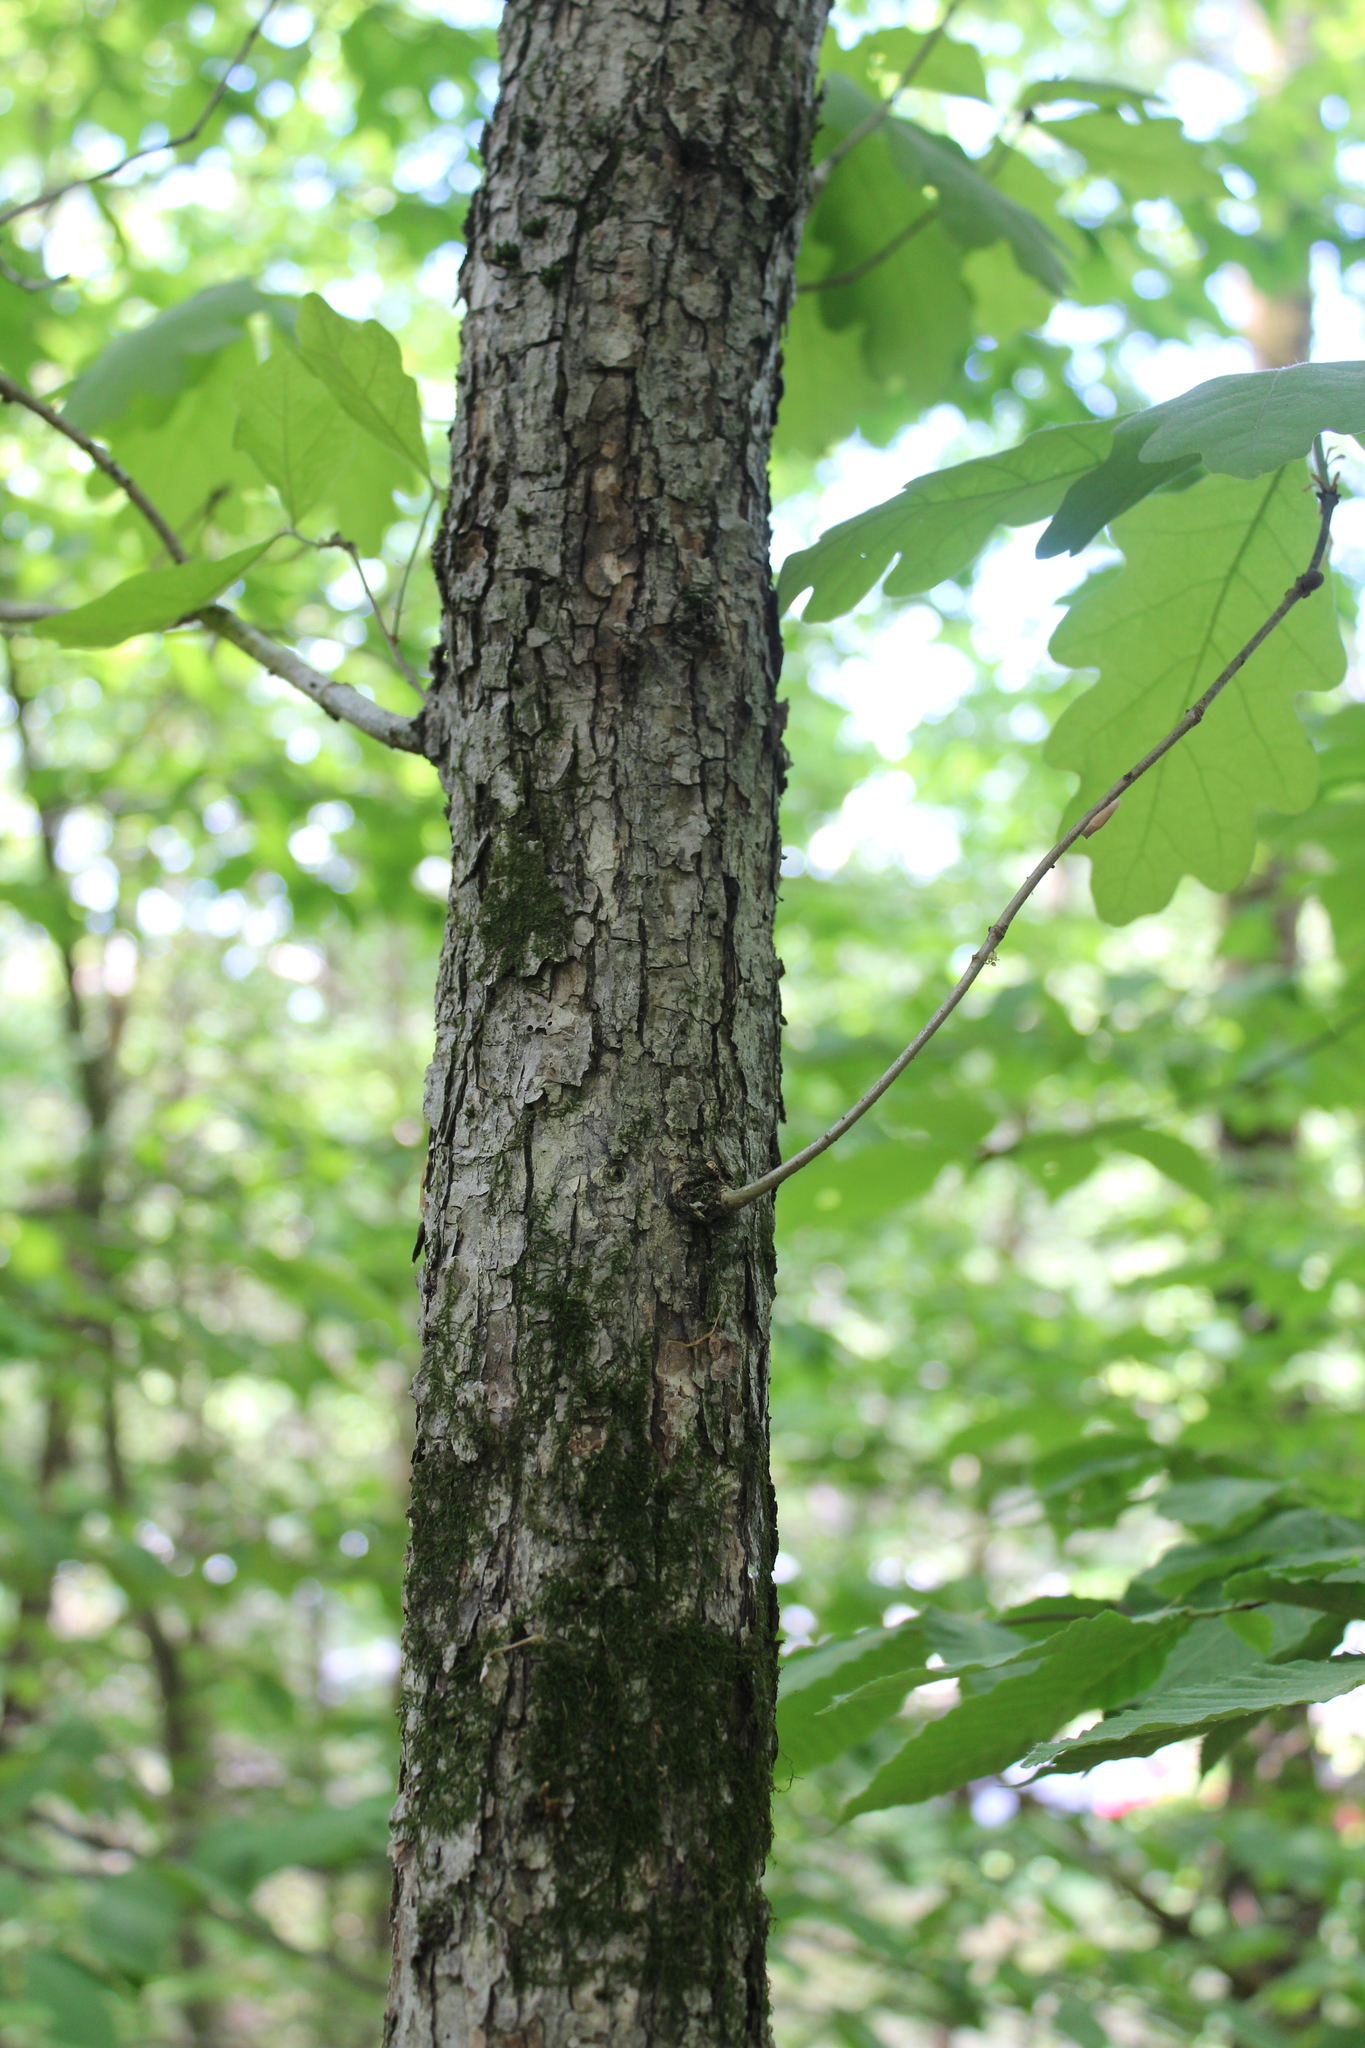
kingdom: Plantae
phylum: Tracheophyta
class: Magnoliopsida
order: Fagales
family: Fagaceae
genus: Quercus
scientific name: Quercus alba
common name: White oak
